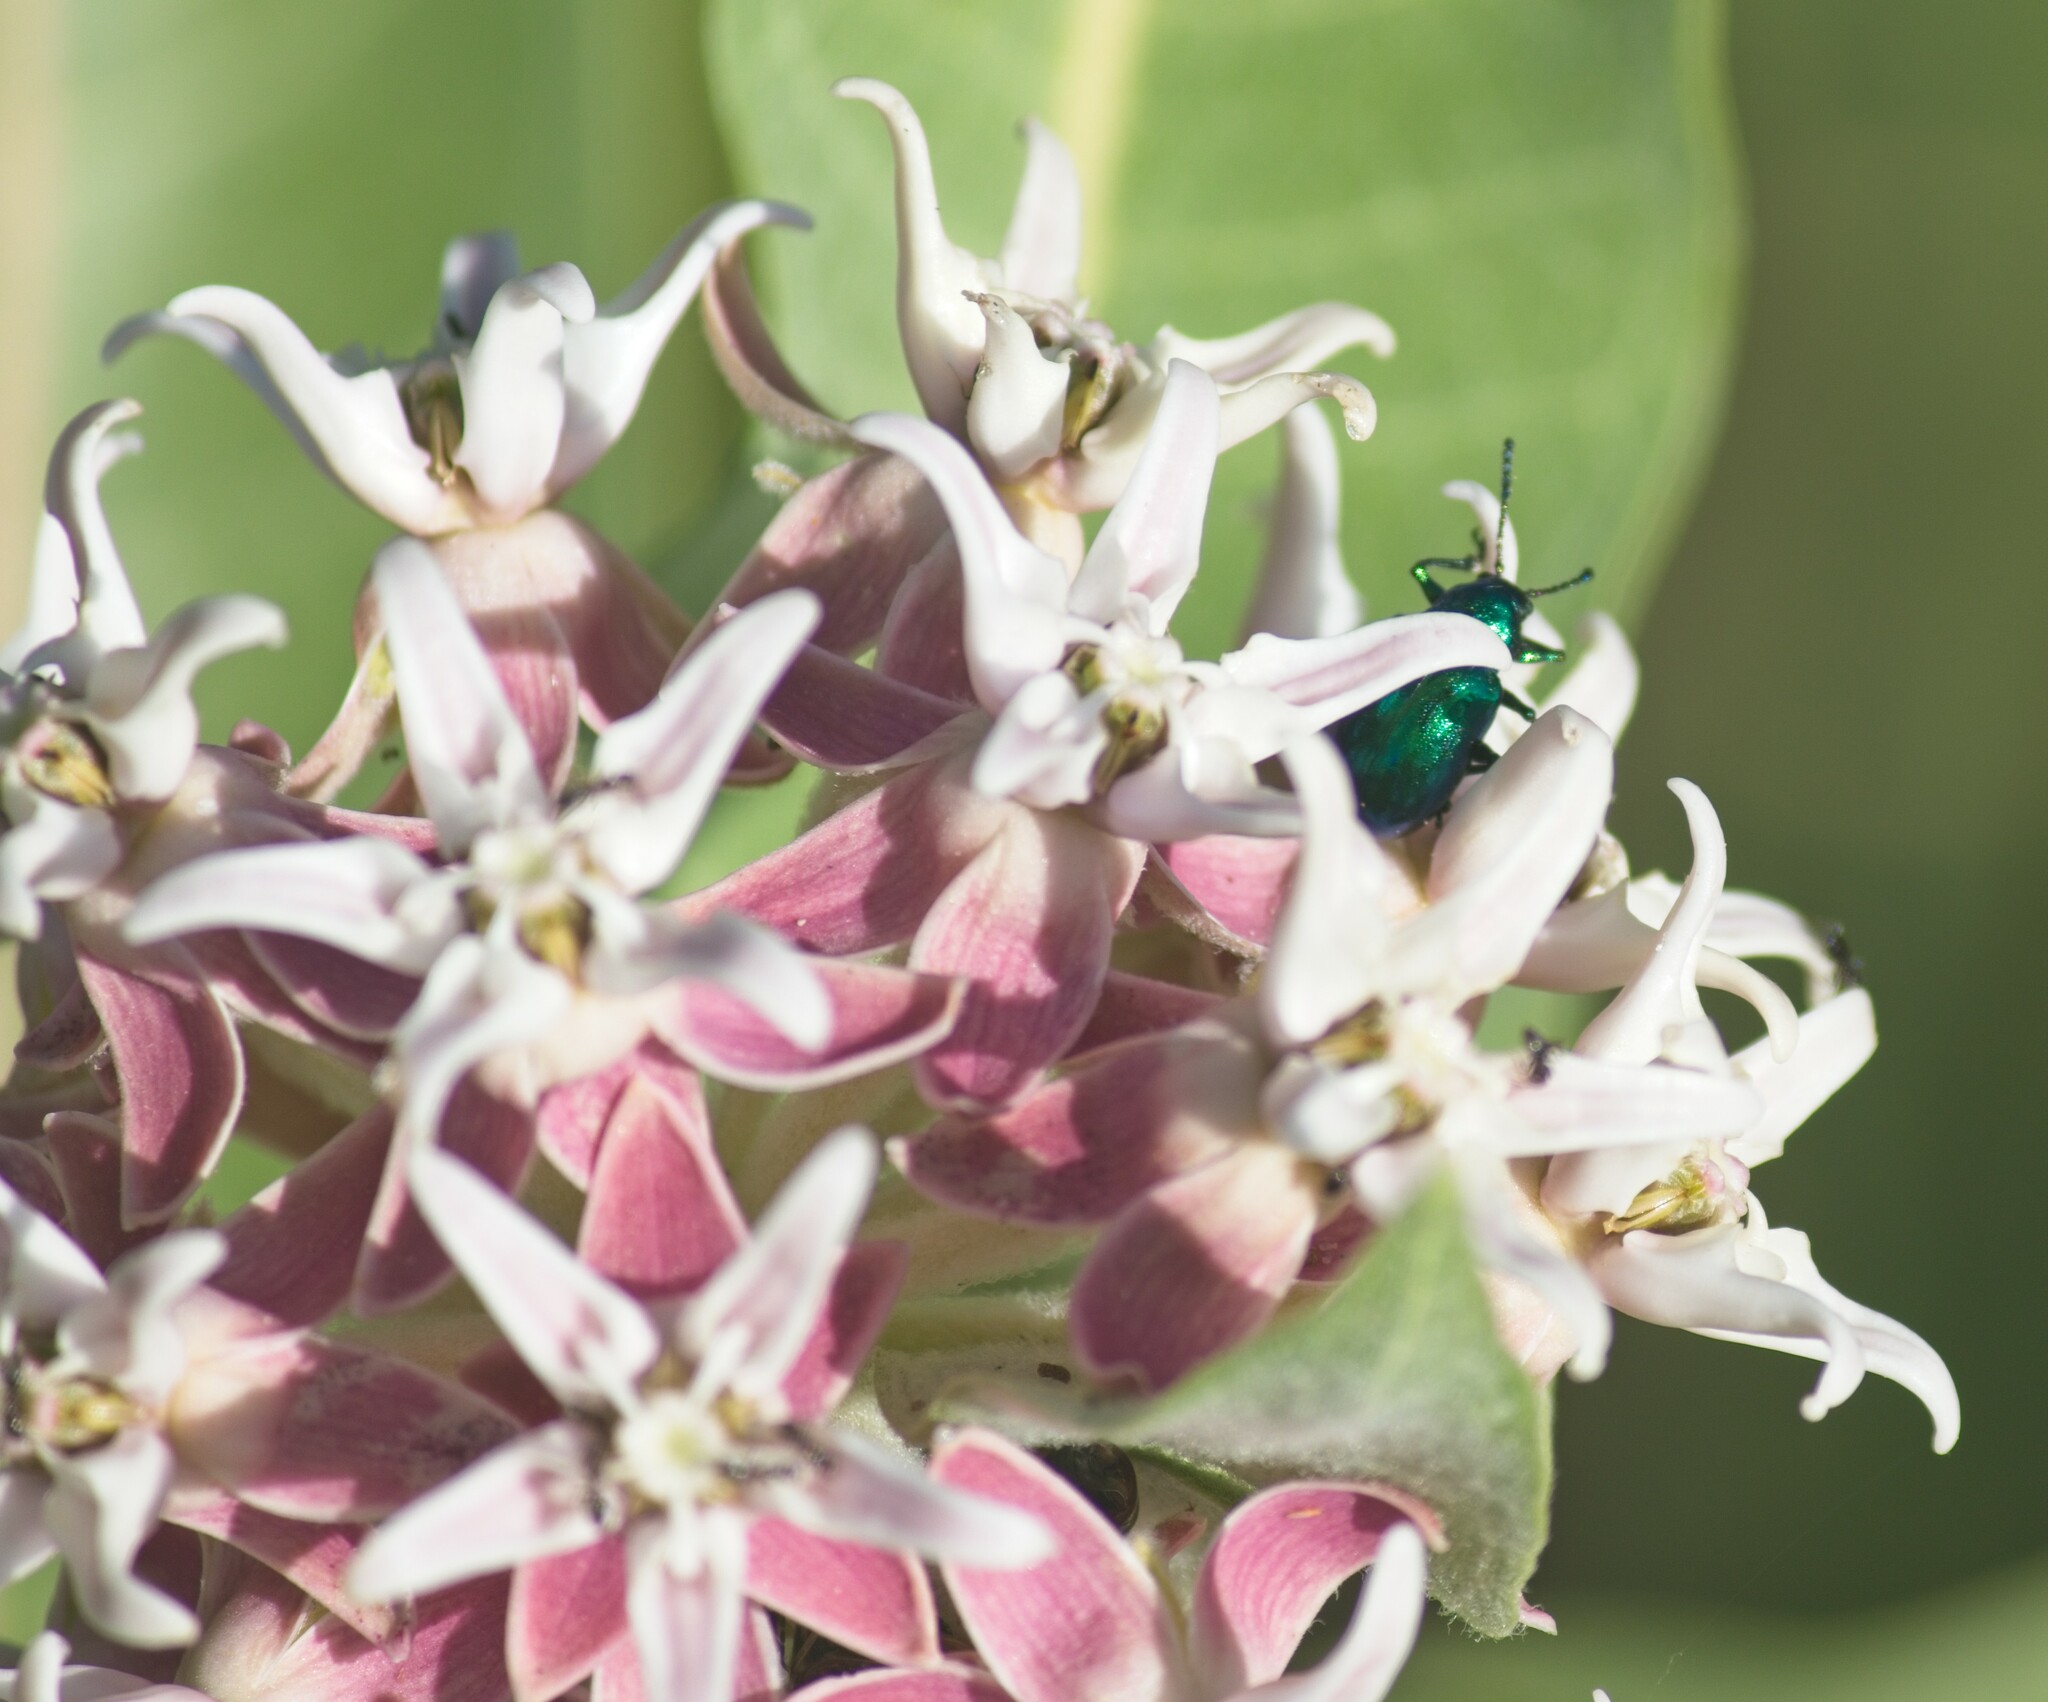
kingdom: Animalia
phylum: Arthropoda
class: Insecta
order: Coleoptera
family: Chrysomelidae
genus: Chrysochus
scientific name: Chrysochus cobaltinus
